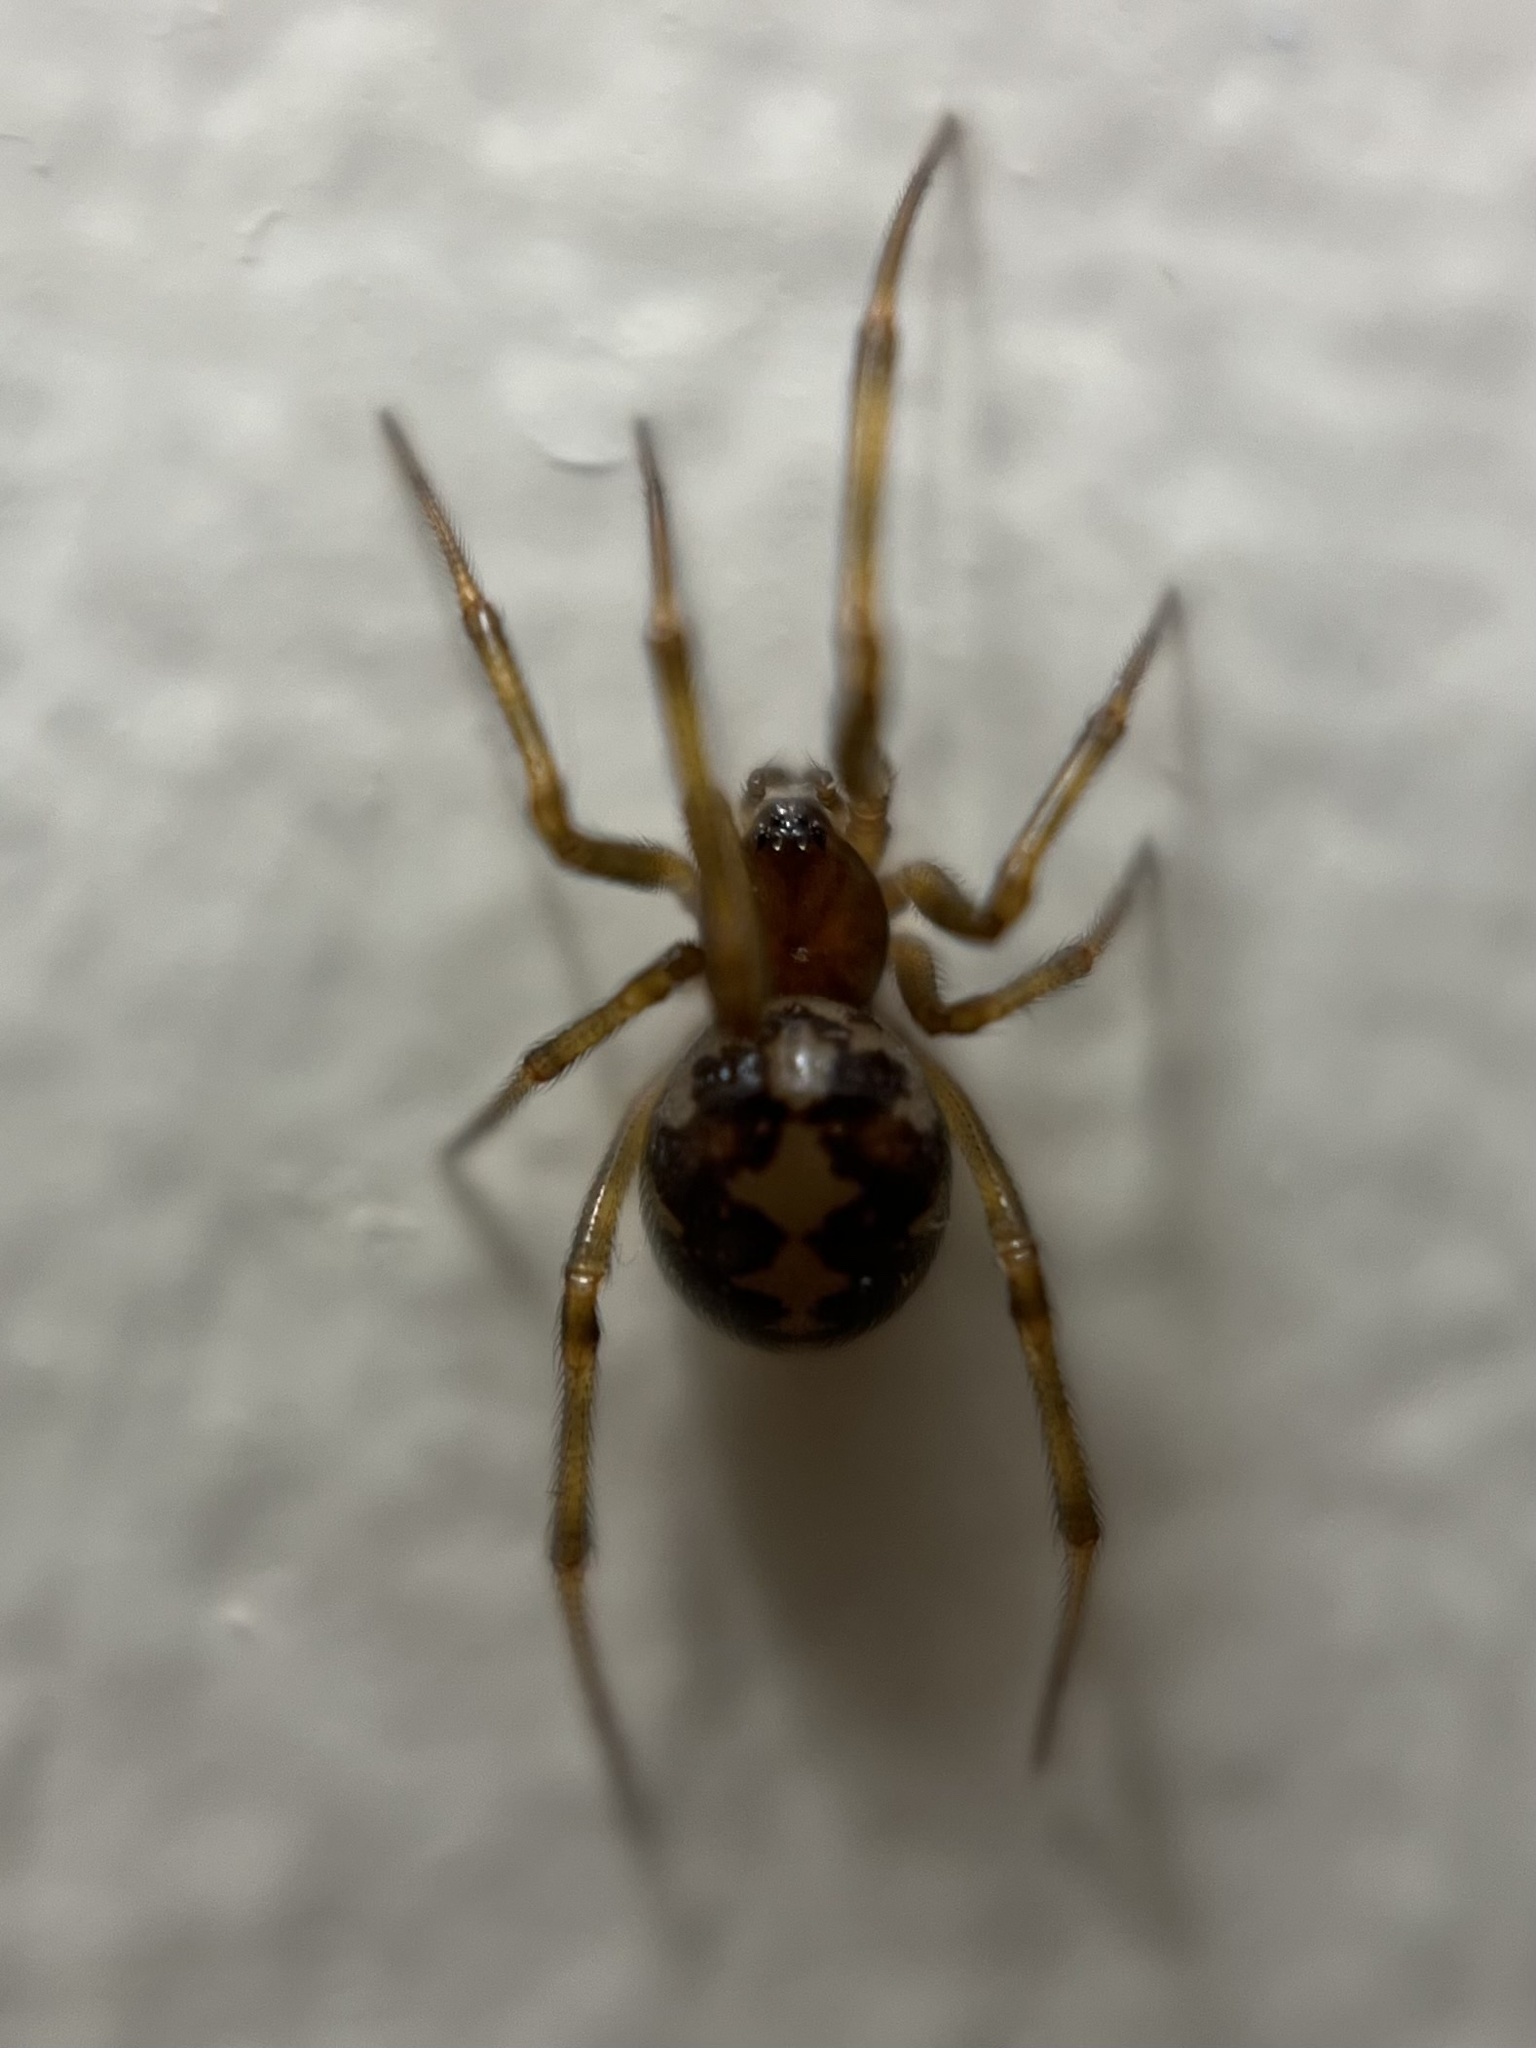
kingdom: Animalia
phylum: Arthropoda
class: Arachnida
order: Araneae
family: Theridiidae
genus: Steatoda
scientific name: Steatoda triangulosa
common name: Triangulate bud spider
